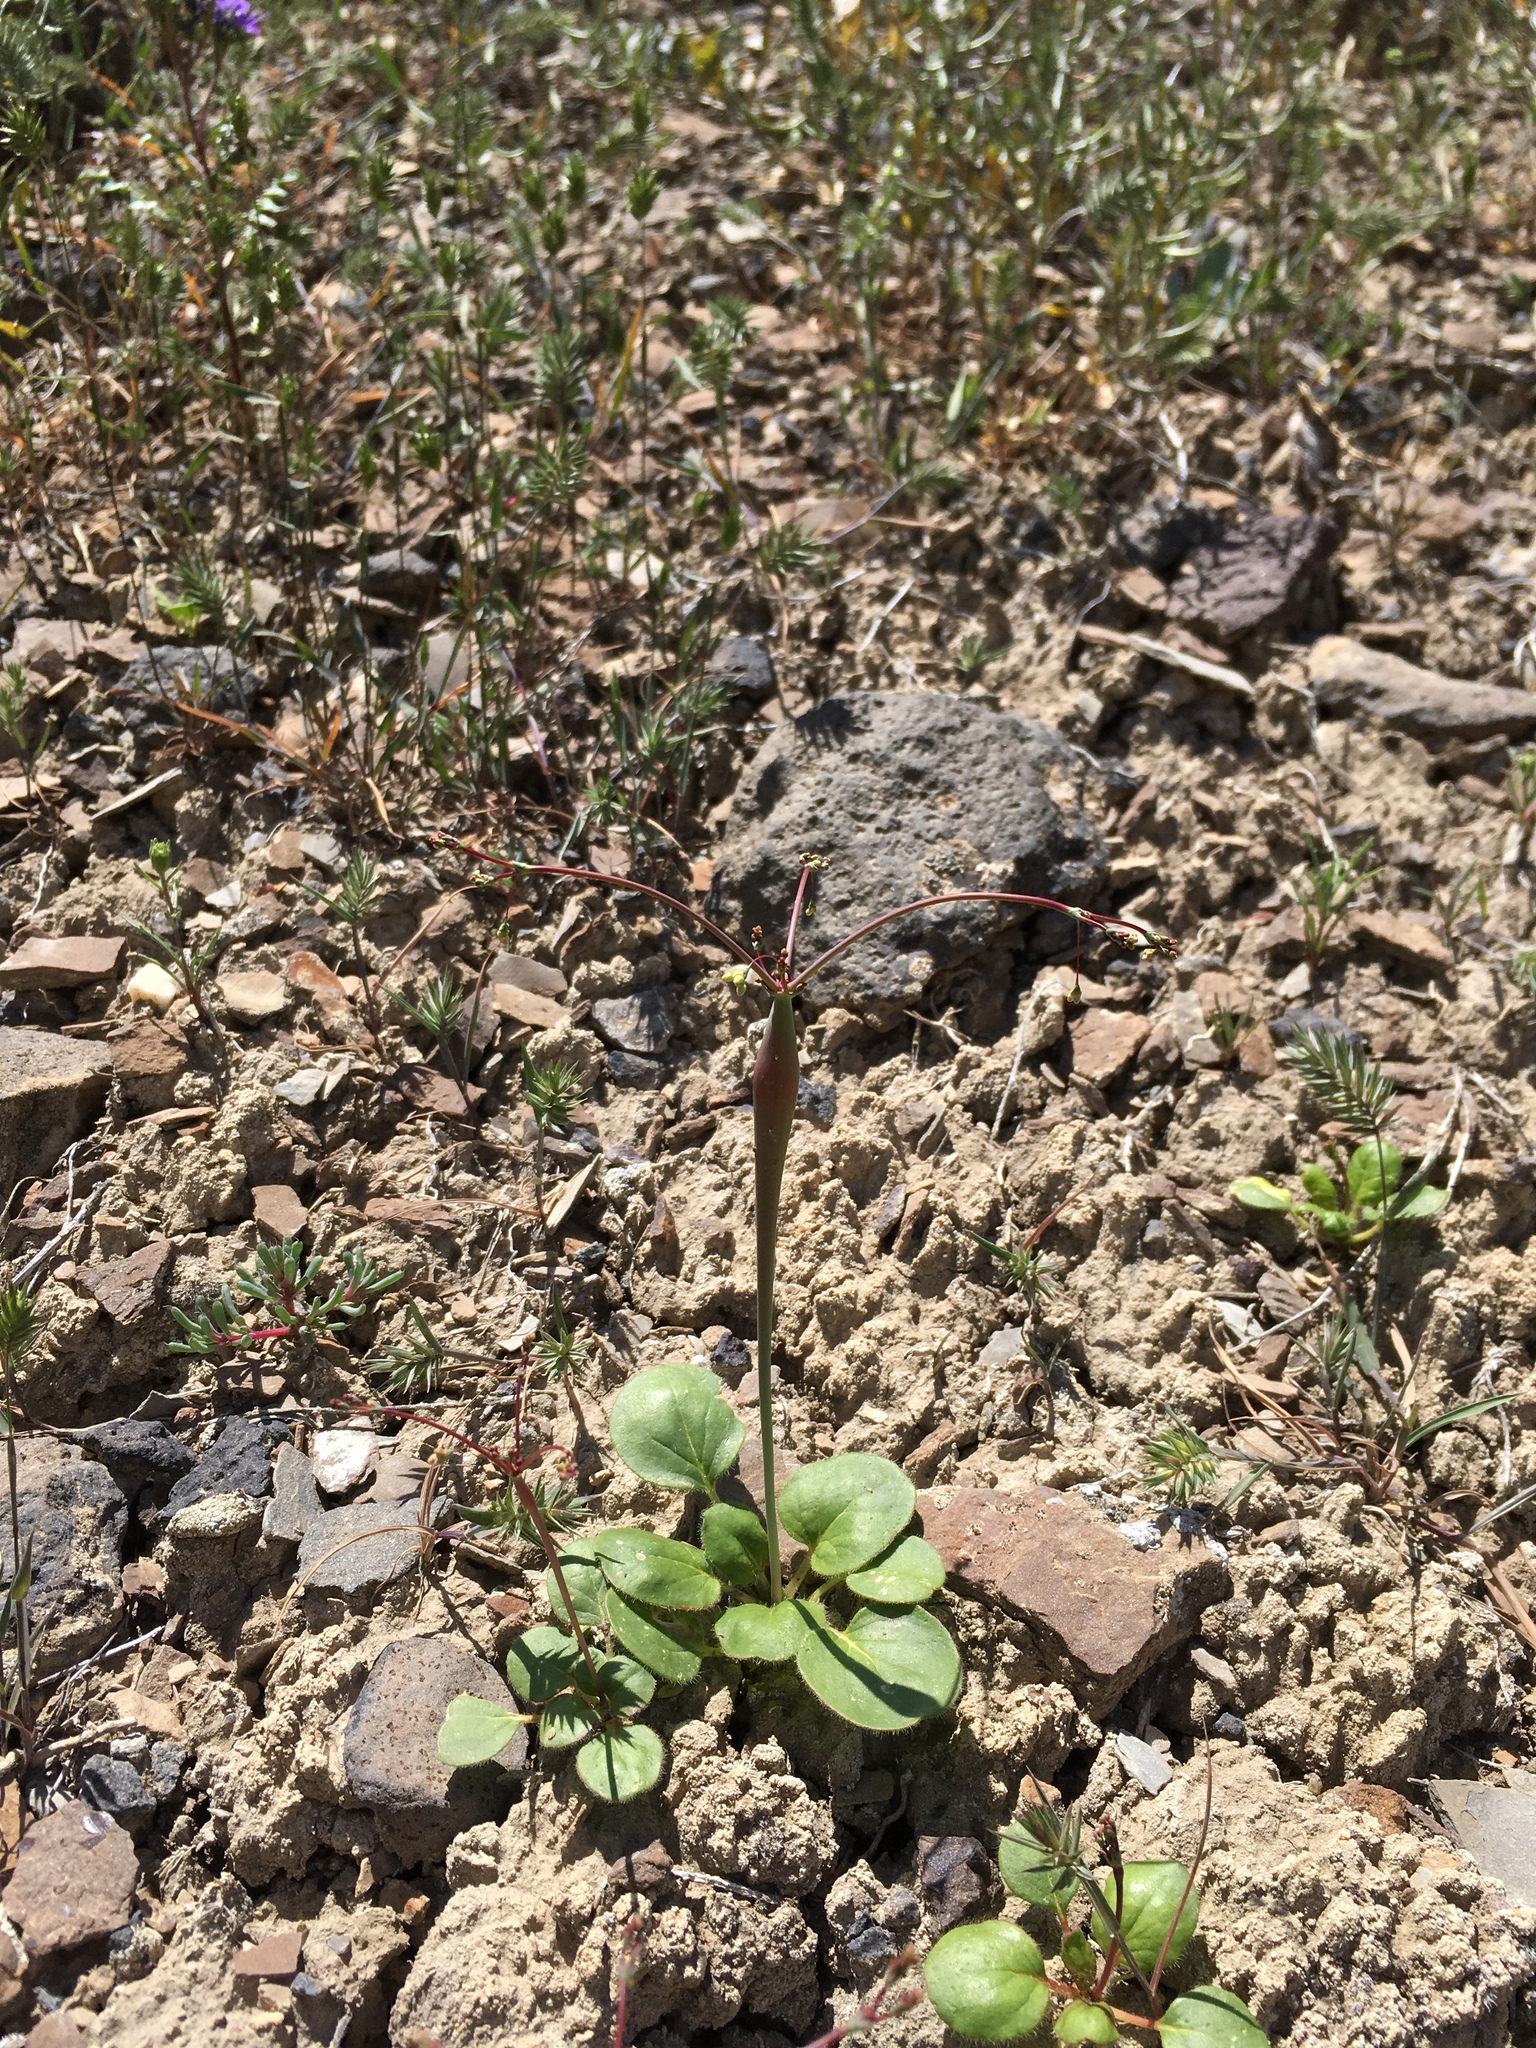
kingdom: Plantae
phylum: Tracheophyta
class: Magnoliopsida
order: Caryophyllales
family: Polygonaceae
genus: Eriogonum
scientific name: Eriogonum inflatum
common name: Desert trumpet
